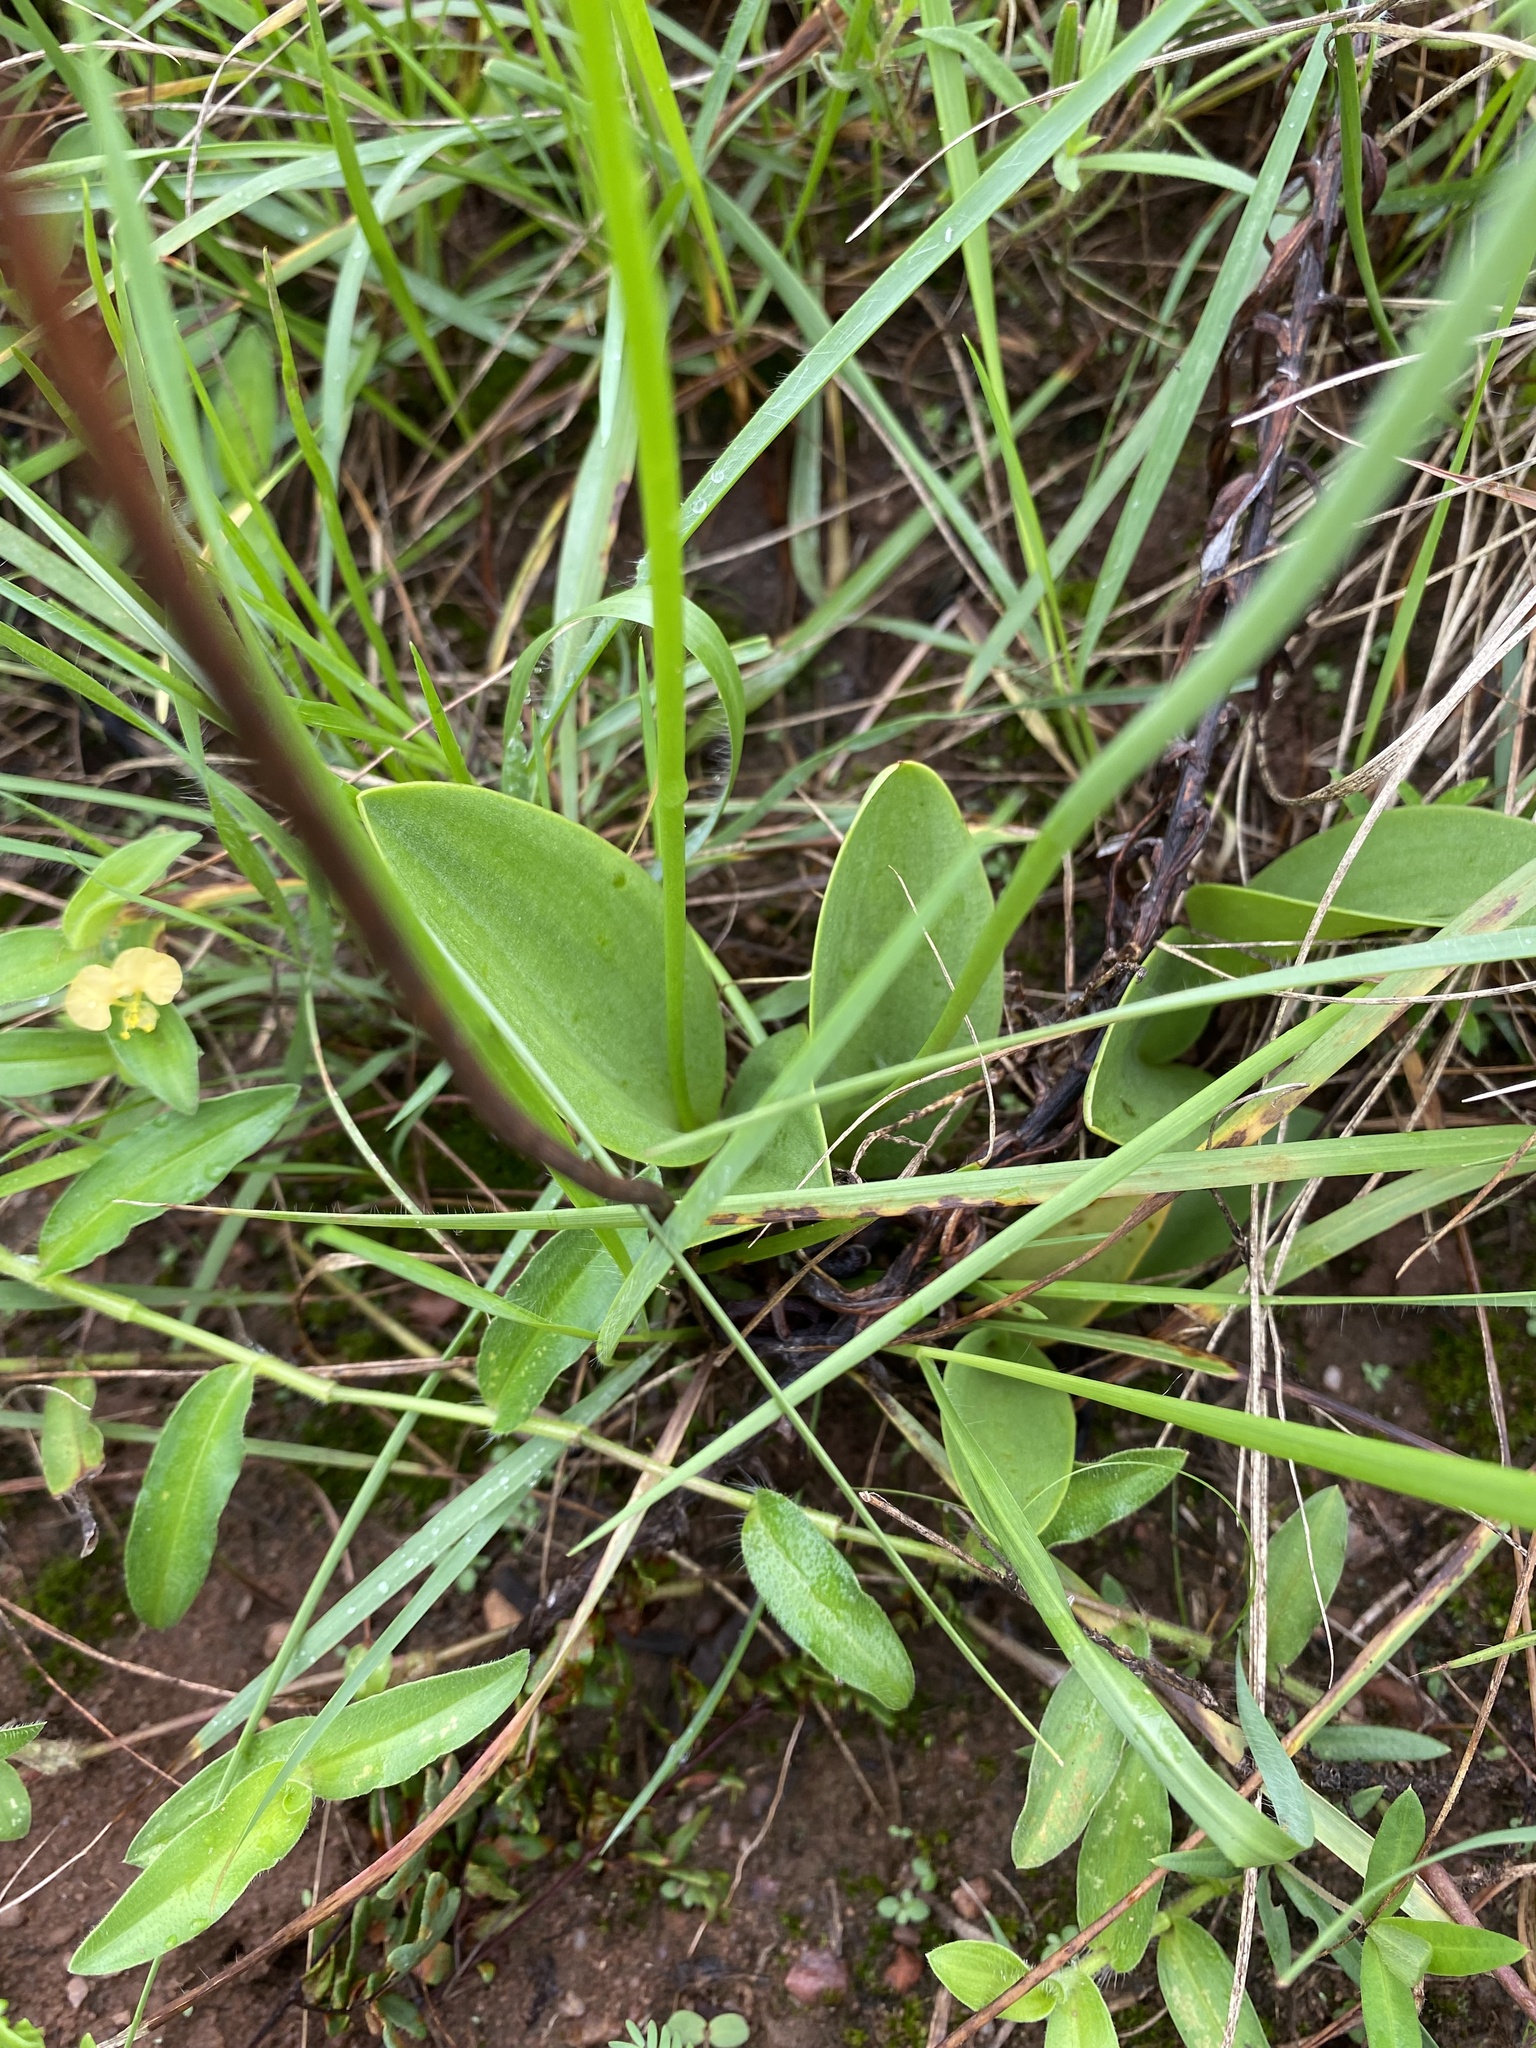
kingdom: Plantae
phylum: Tracheophyta
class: Liliopsida
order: Asparagales
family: Asparagaceae
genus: Eriospermum
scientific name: Eriospermum mackenii
